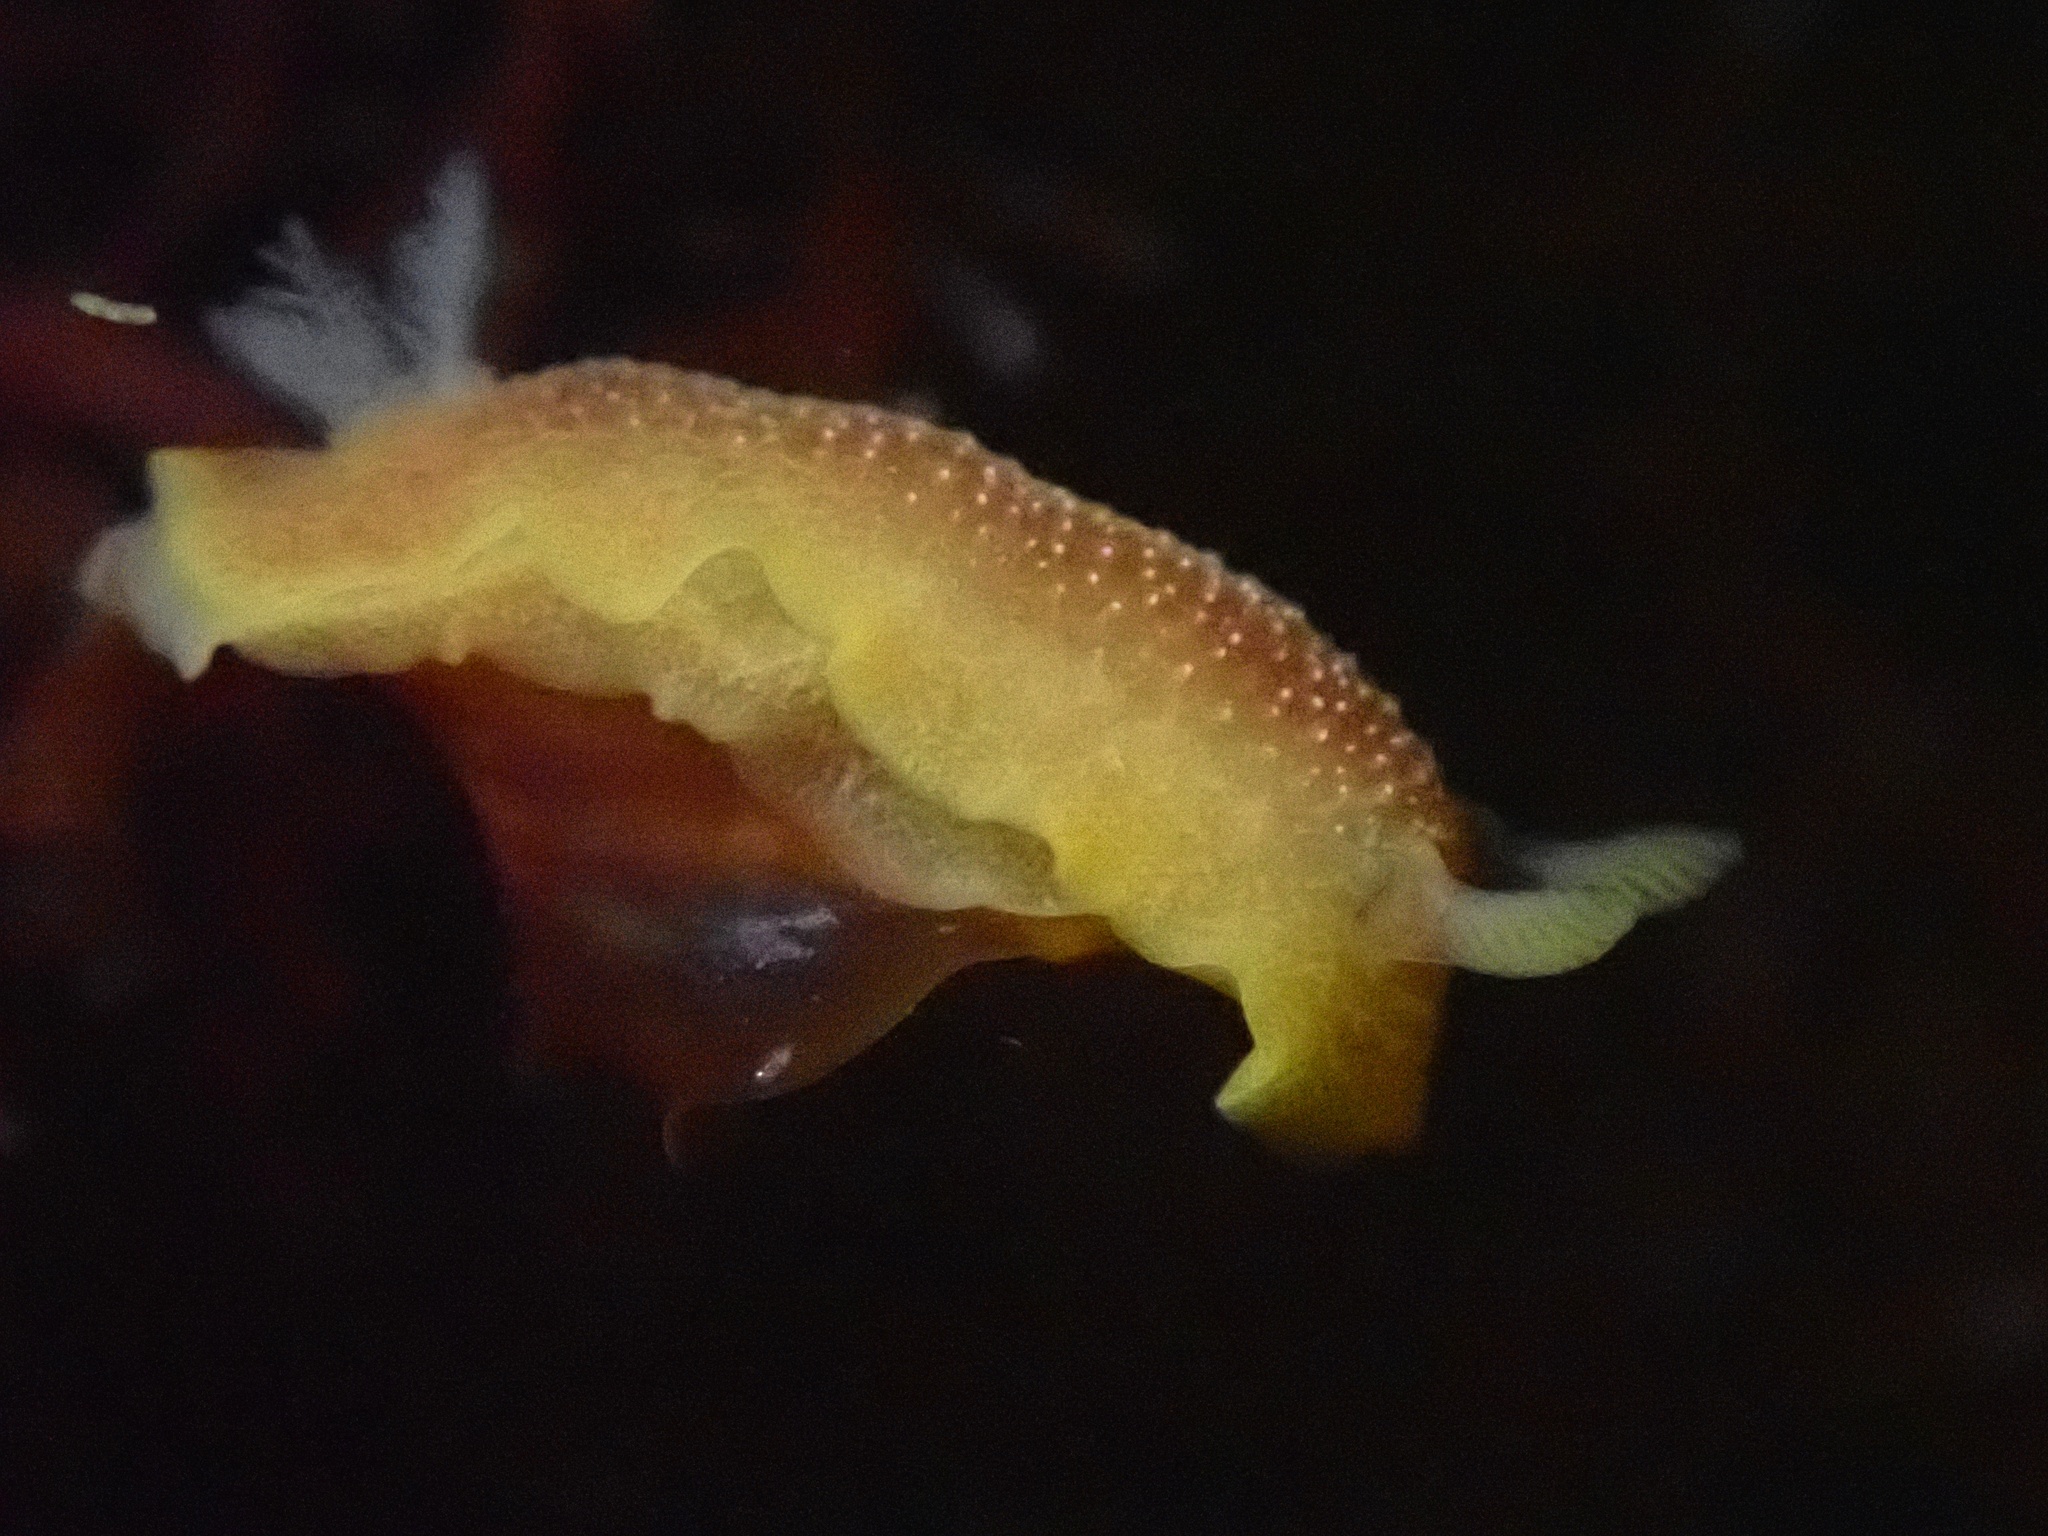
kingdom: Animalia
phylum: Mollusca
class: Gastropoda
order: Nudibranchia
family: Dendrodorididae
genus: Doriopsilla
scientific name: Doriopsilla albopunctata
